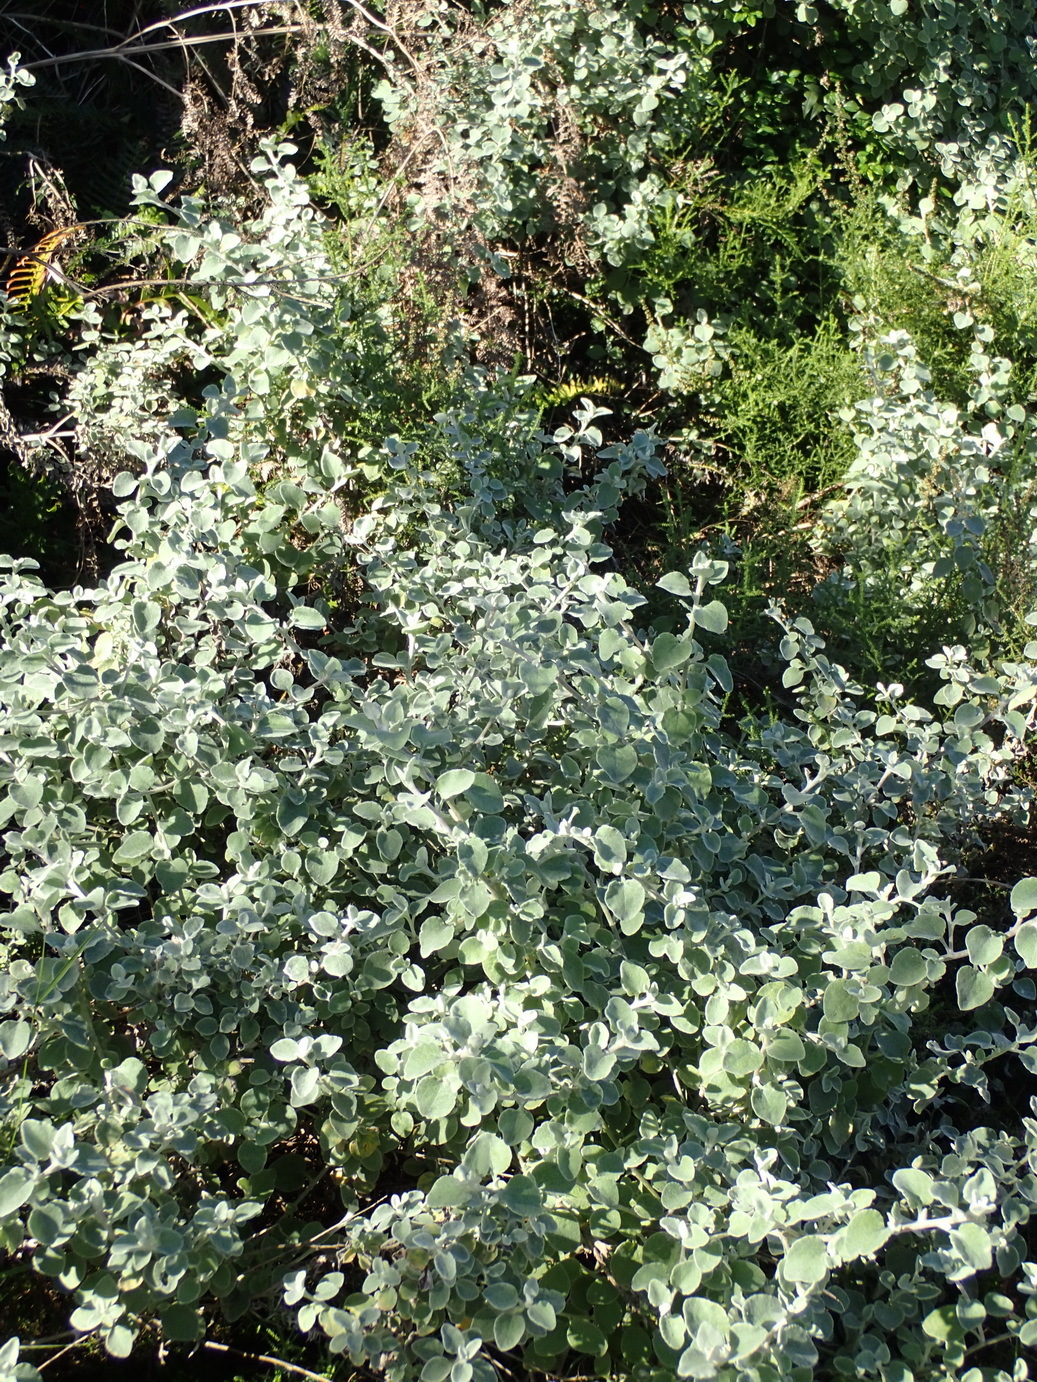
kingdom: Plantae
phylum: Tracheophyta
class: Magnoliopsida
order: Asterales
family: Asteraceae
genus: Helichrysum
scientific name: Helichrysum petiolare
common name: Licorice-plant
